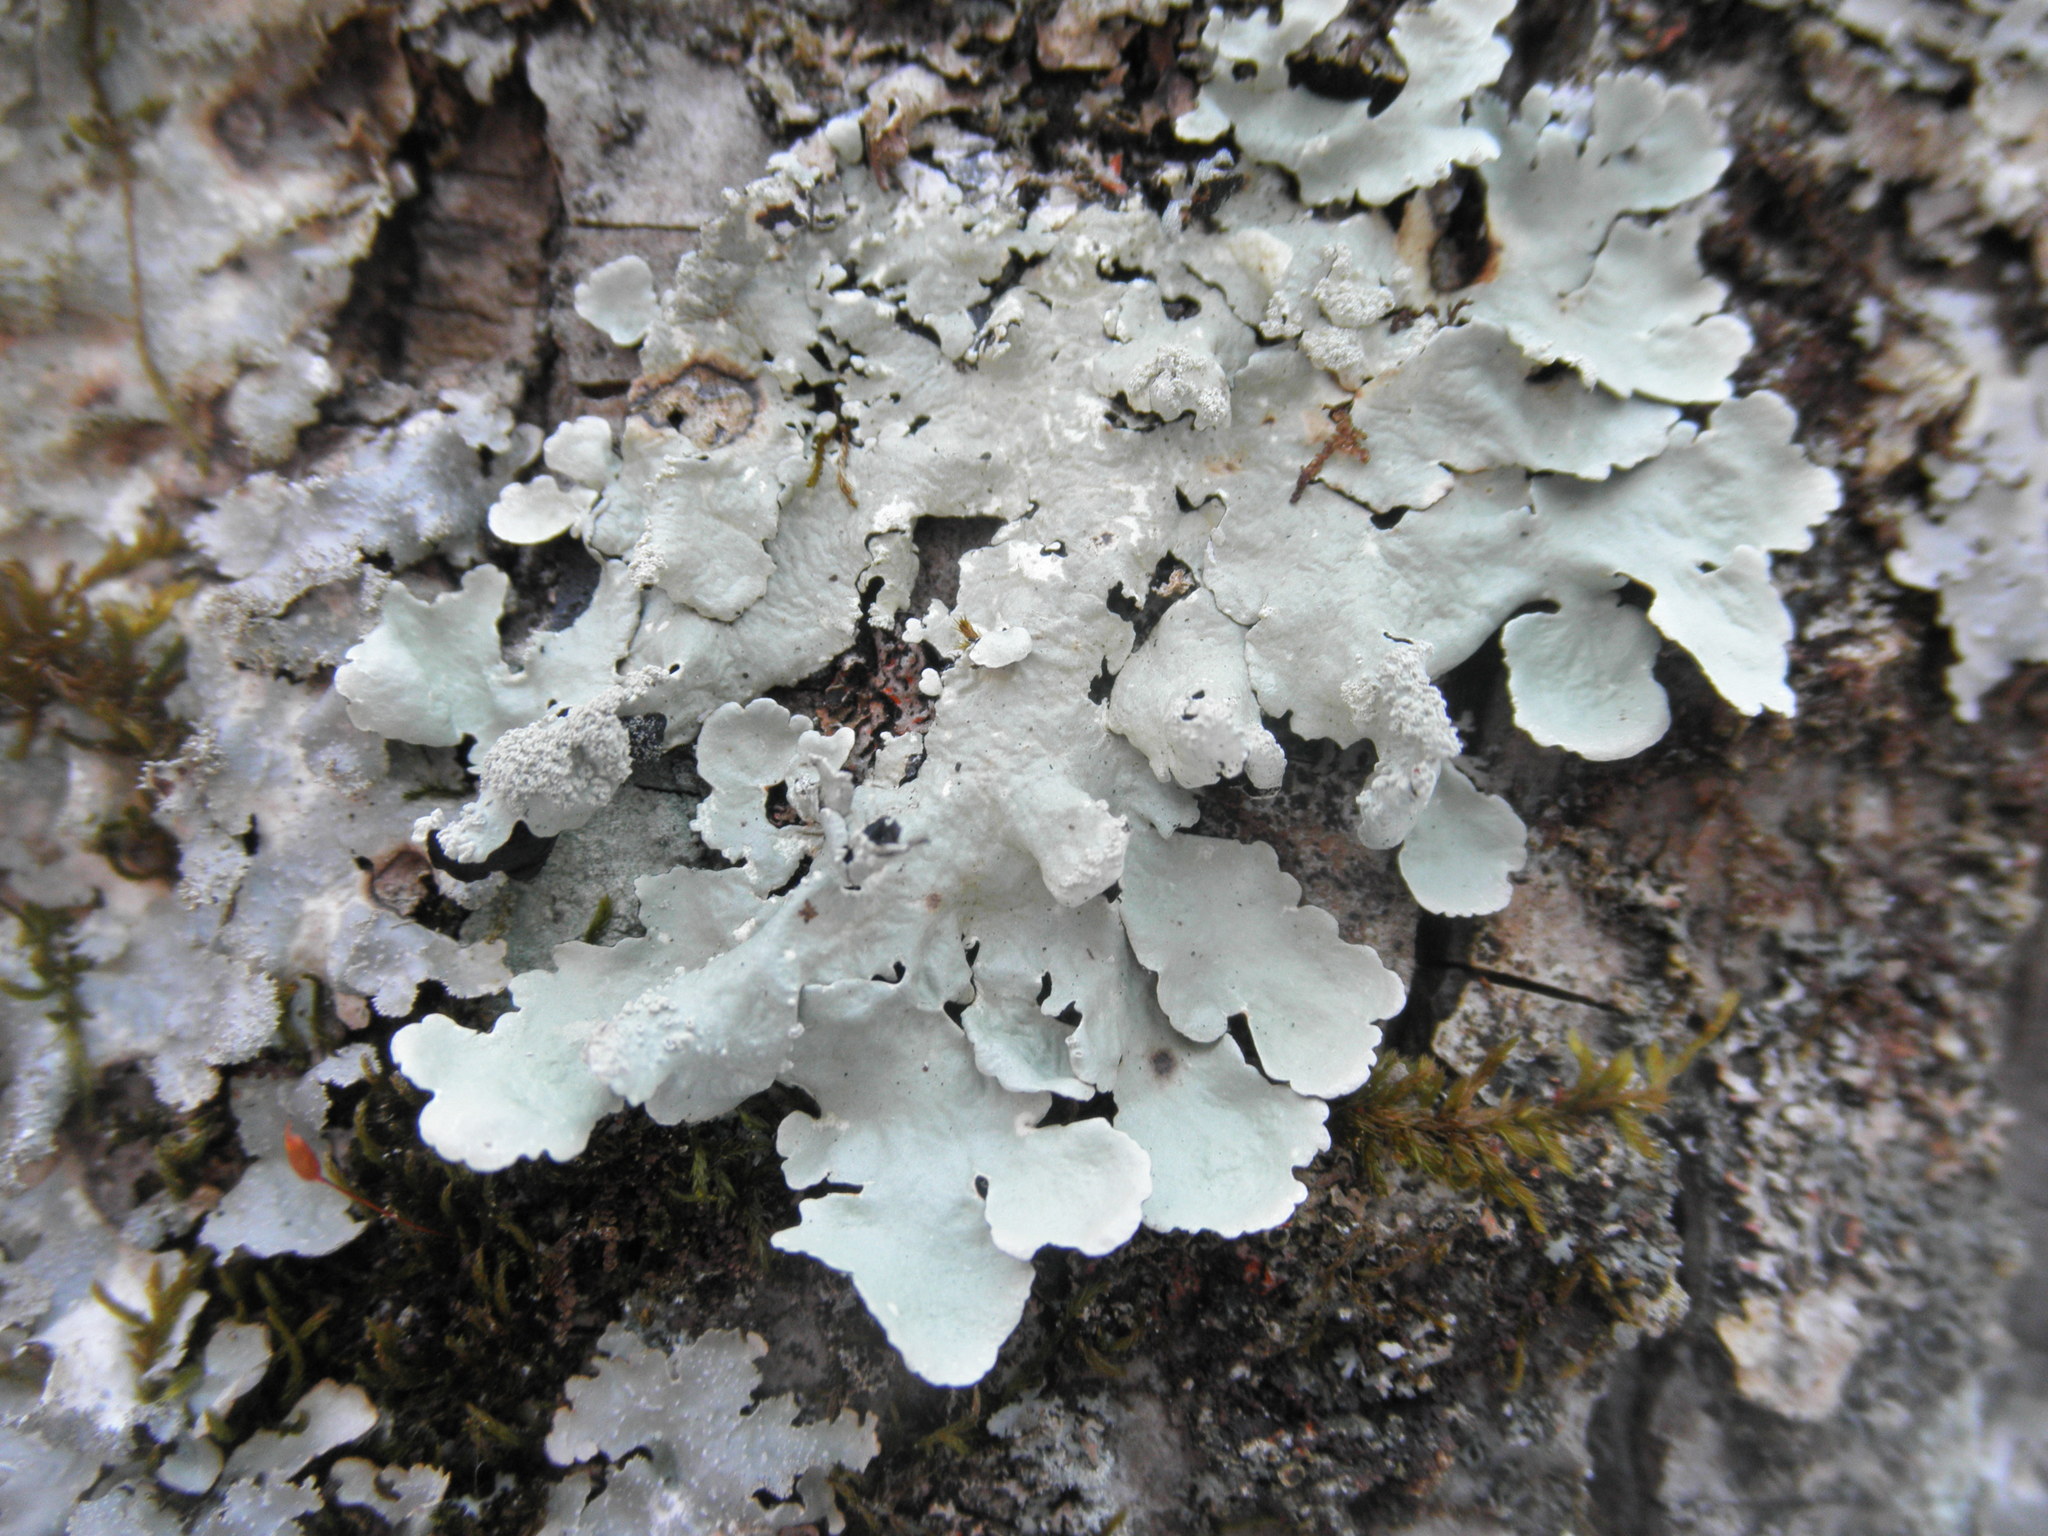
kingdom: Fungi
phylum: Ascomycota
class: Lecanoromycetes
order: Lecanorales
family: Parmeliaceae
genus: Flavoparmelia
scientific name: Flavoparmelia caperata
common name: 40-mile per hour lichen
